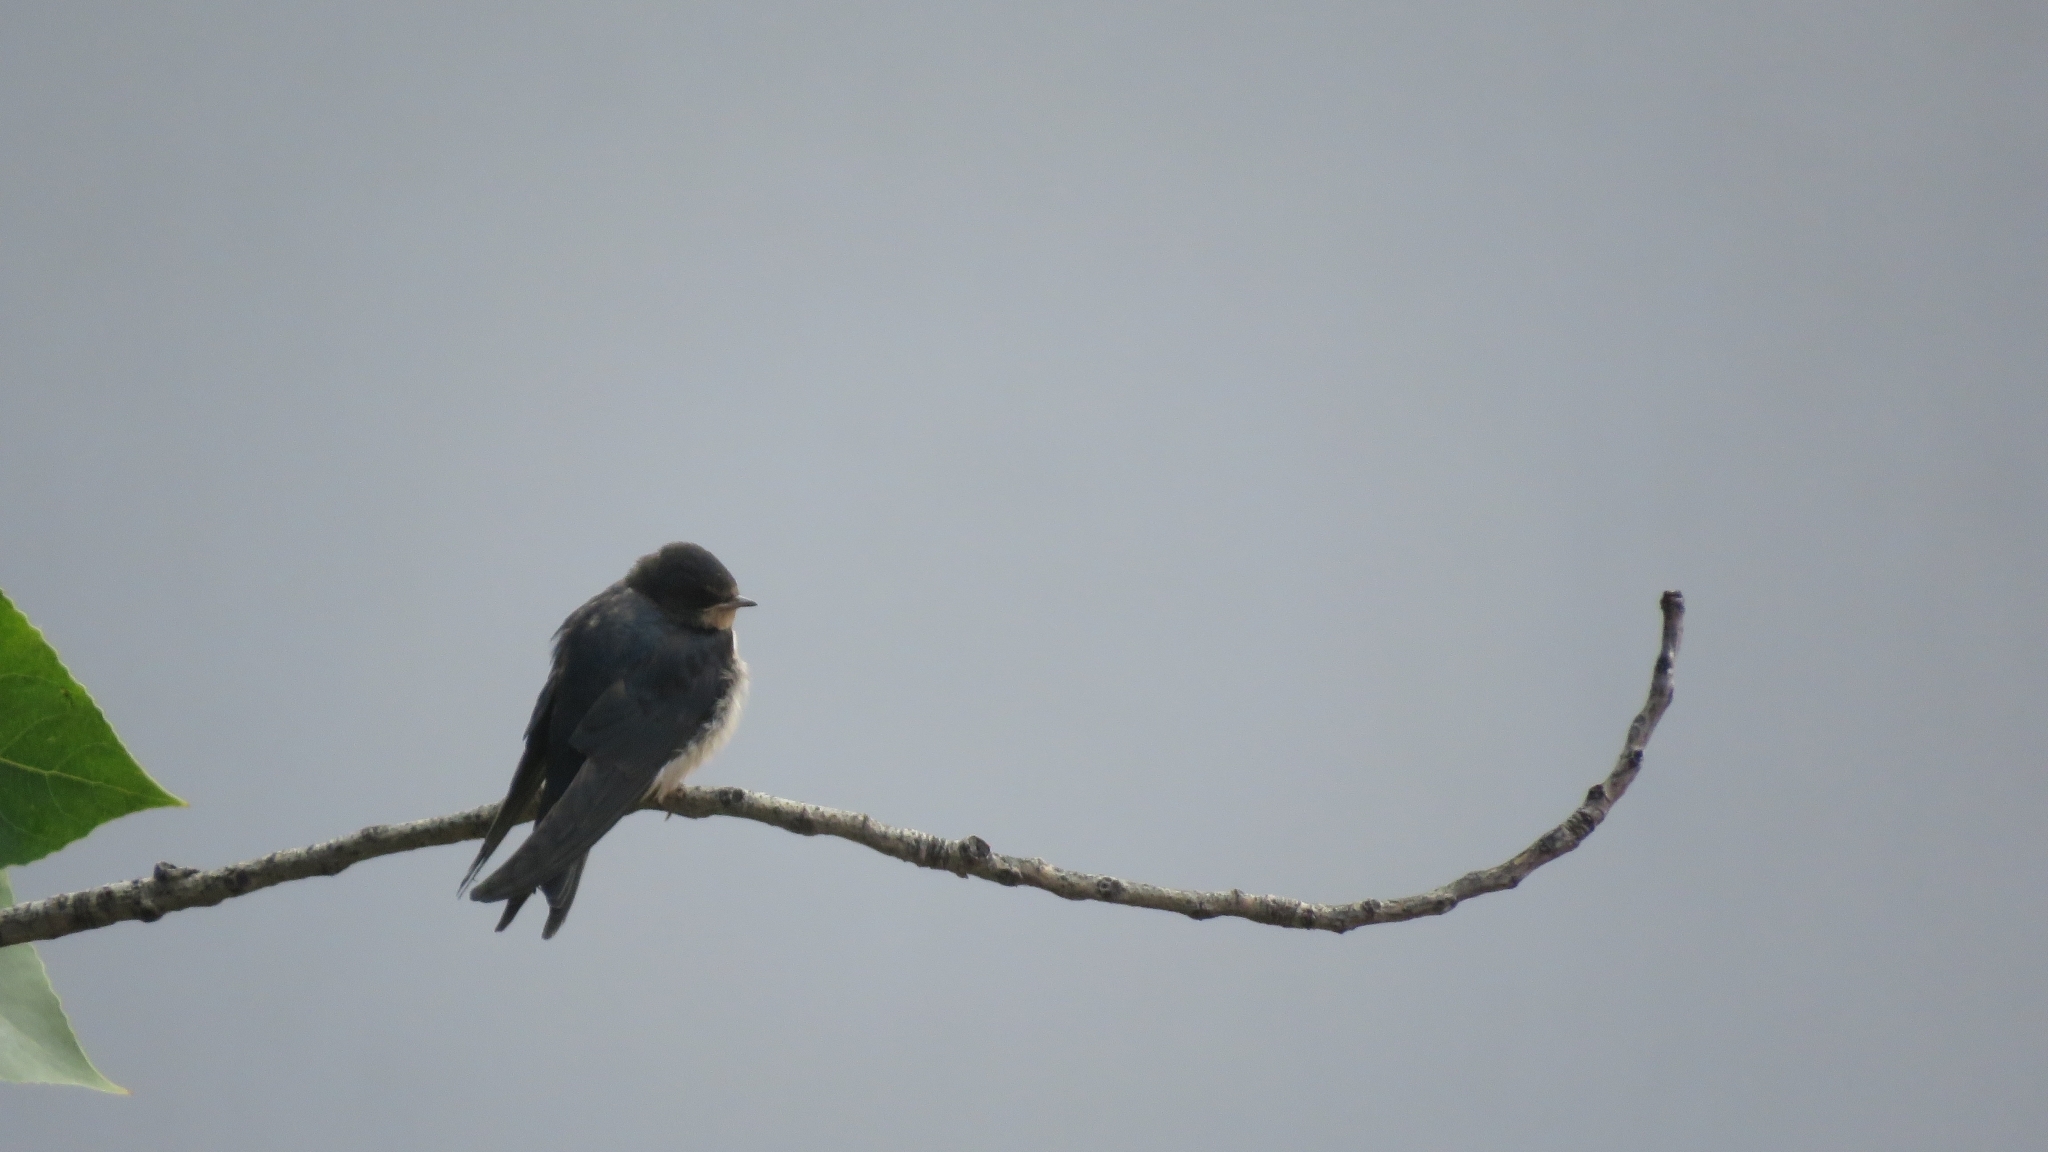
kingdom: Animalia
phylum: Chordata
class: Aves
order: Passeriformes
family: Hirundinidae
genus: Hirundo
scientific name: Hirundo rustica
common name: Barn swallow
